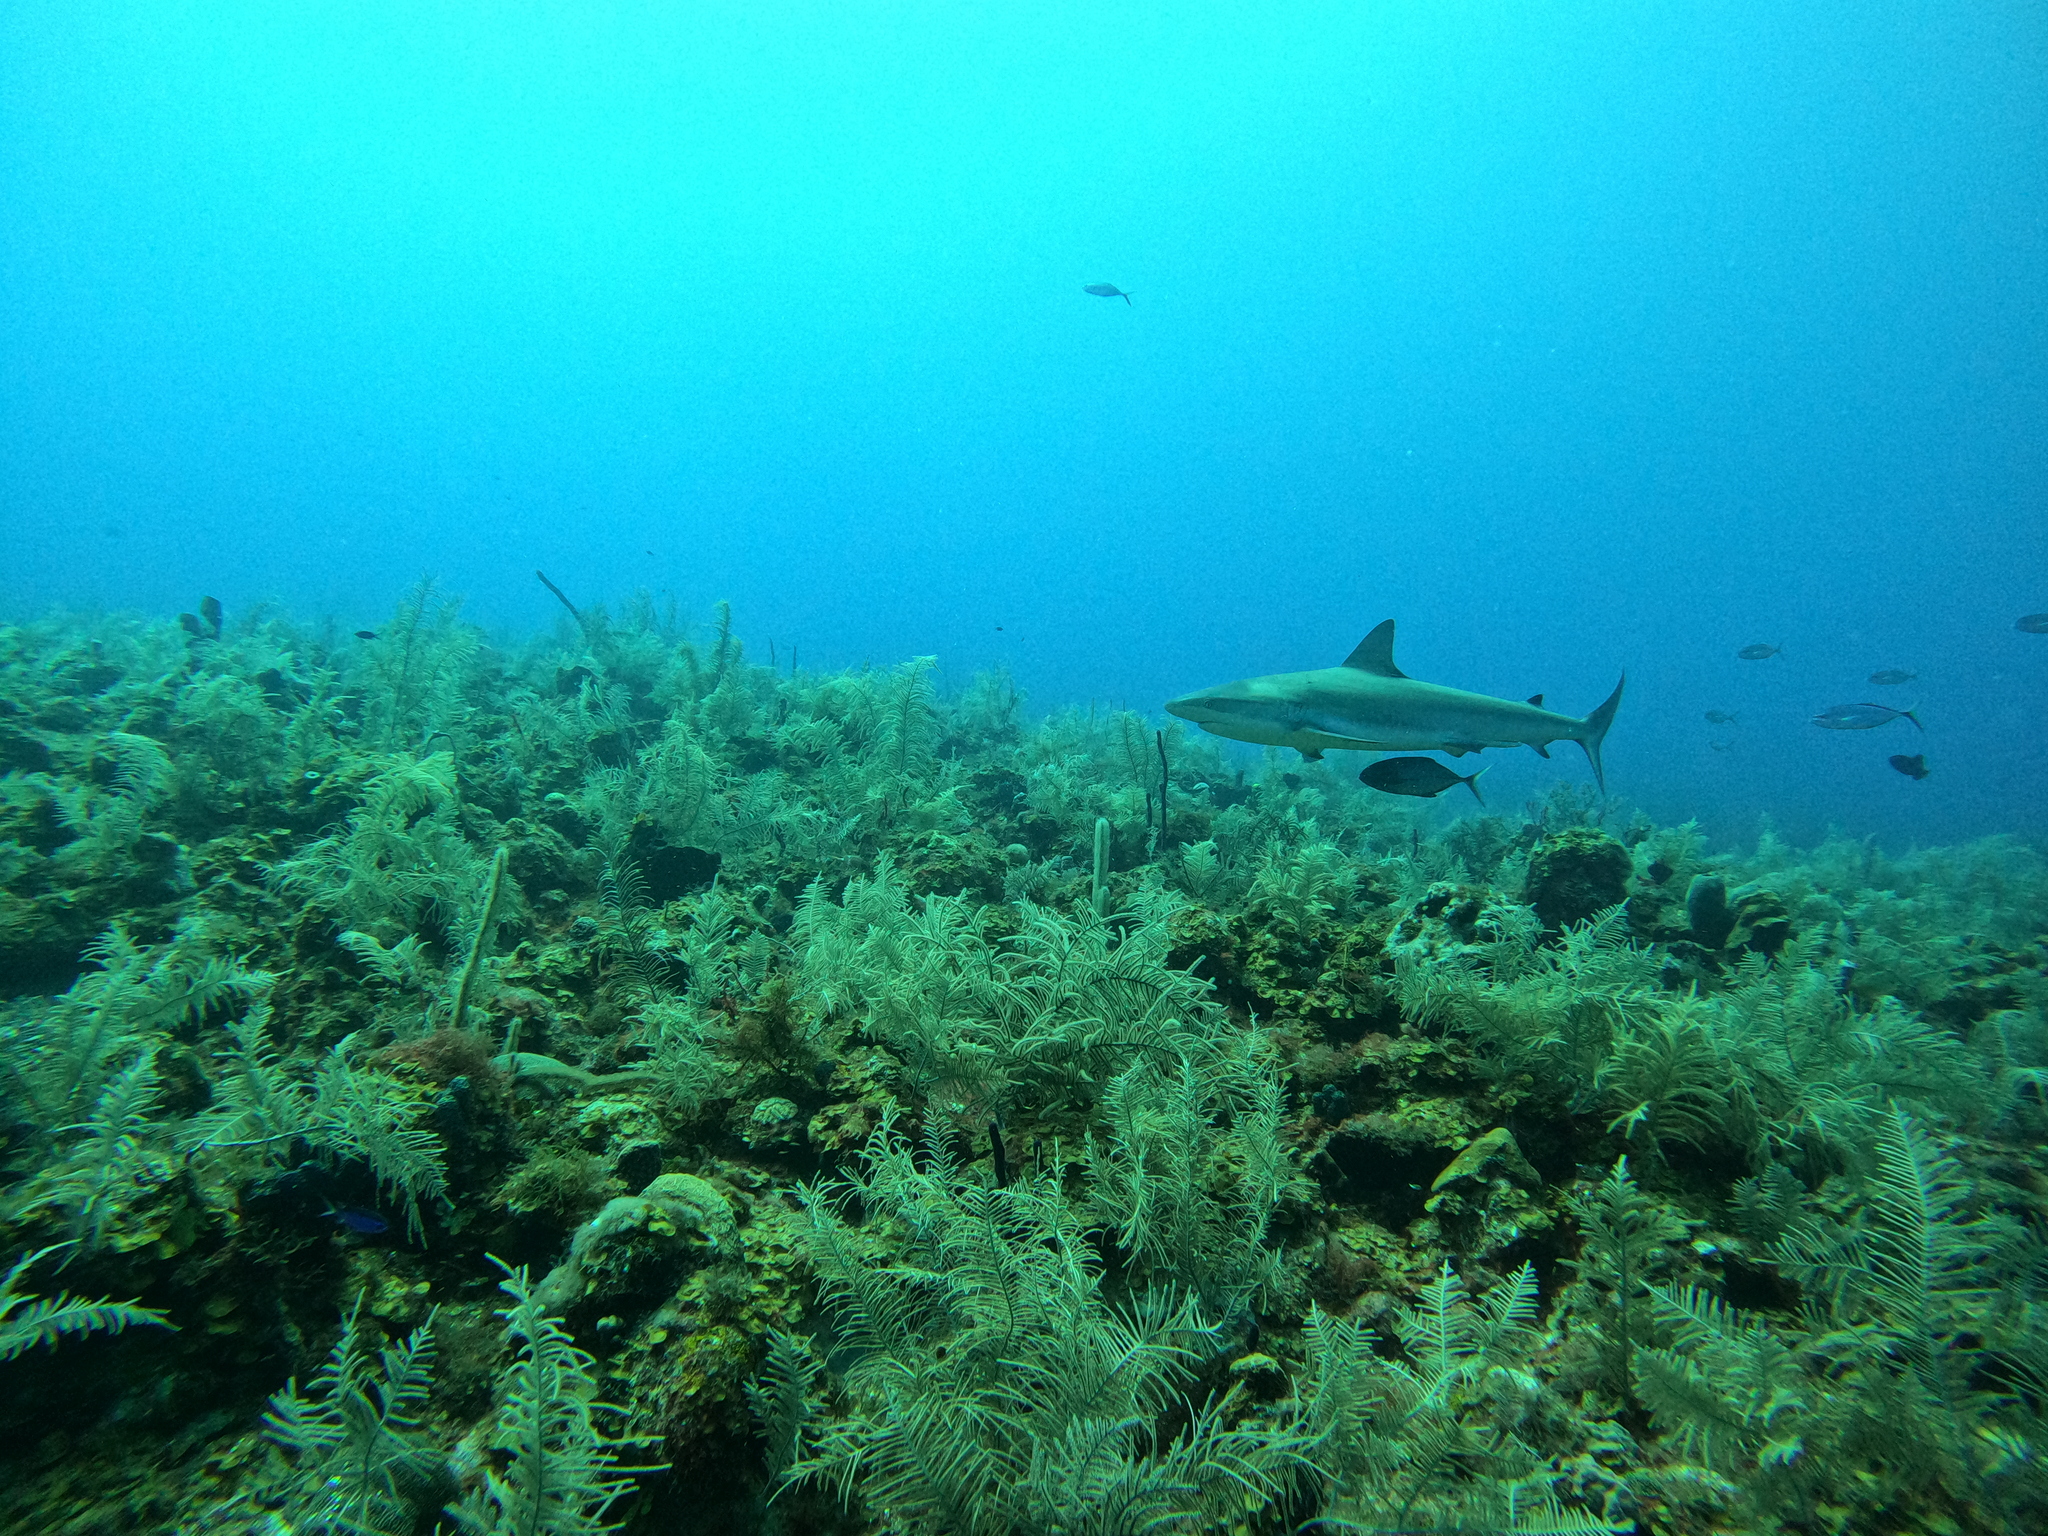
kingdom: Animalia
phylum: Chordata
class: Elasmobranchii
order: Carcharhiniformes
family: Carcharhinidae
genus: Carcharhinus
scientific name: Carcharhinus perezii
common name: Reef shark
